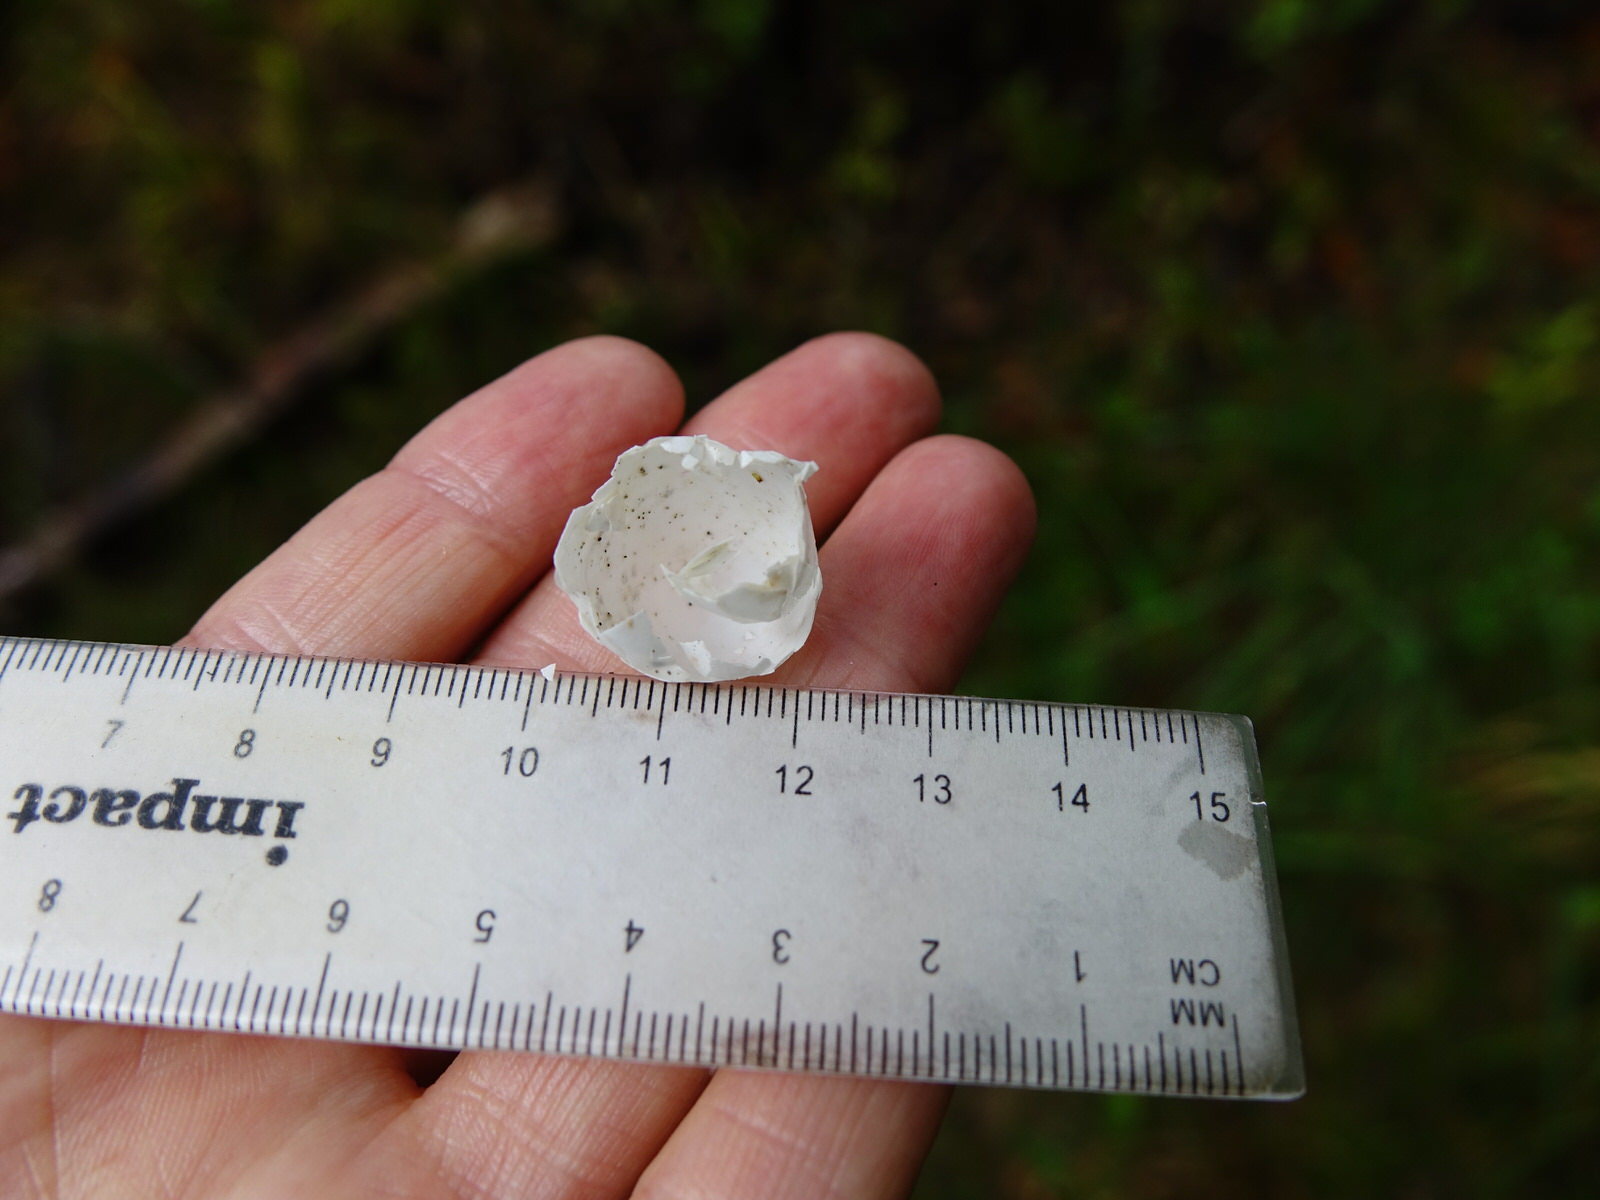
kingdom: Animalia
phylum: Chordata
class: Aves
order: Passeriformes
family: Meliphagidae
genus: Prosthemadera
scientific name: Prosthemadera novaeseelandiae
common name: Tui
